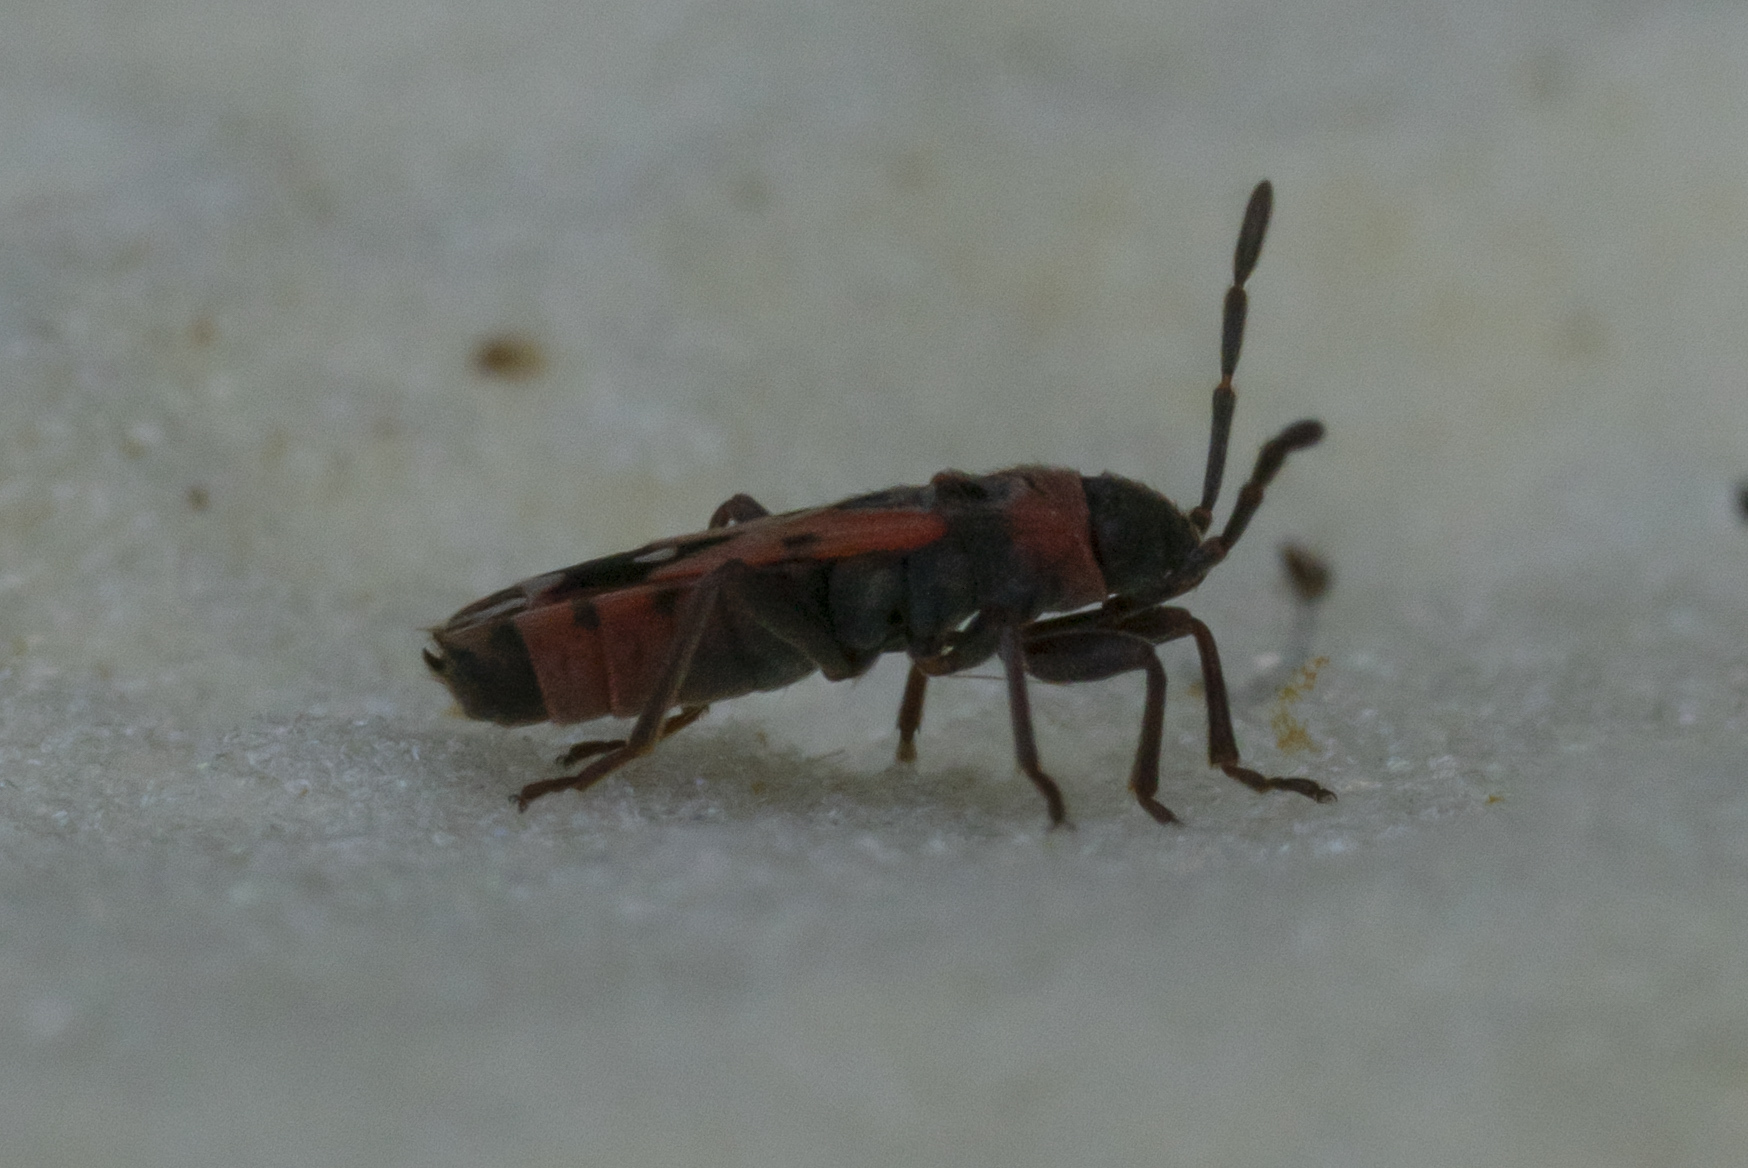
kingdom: Animalia
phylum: Arthropoda
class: Insecta
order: Hemiptera
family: Lygaeidae
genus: Horvathiolus
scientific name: Horvathiolus superbus
